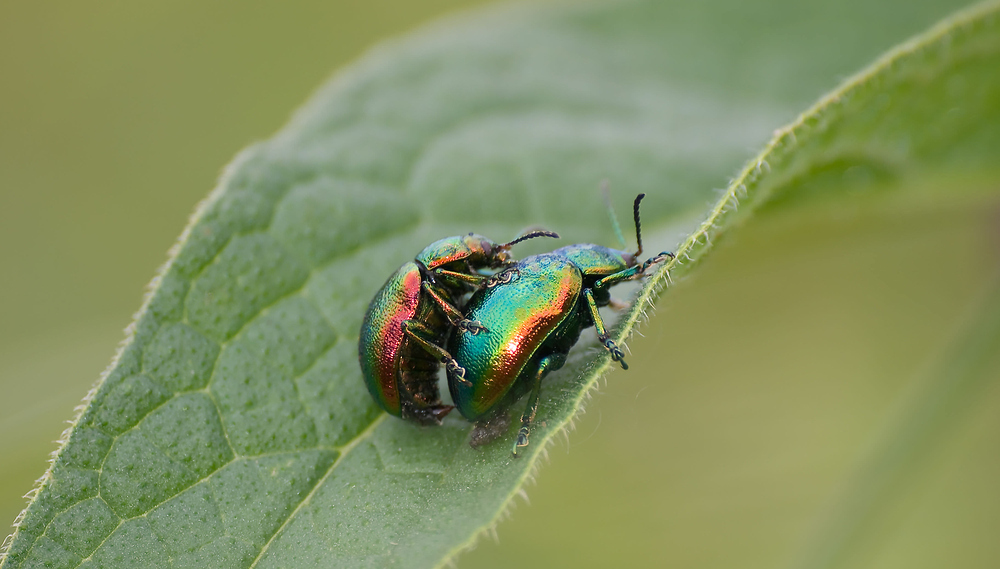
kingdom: Animalia
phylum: Arthropoda
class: Insecta
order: Coleoptera
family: Chrysomelidae
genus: Chrysolina
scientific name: Chrysolina graminis
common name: Tansey beetle
